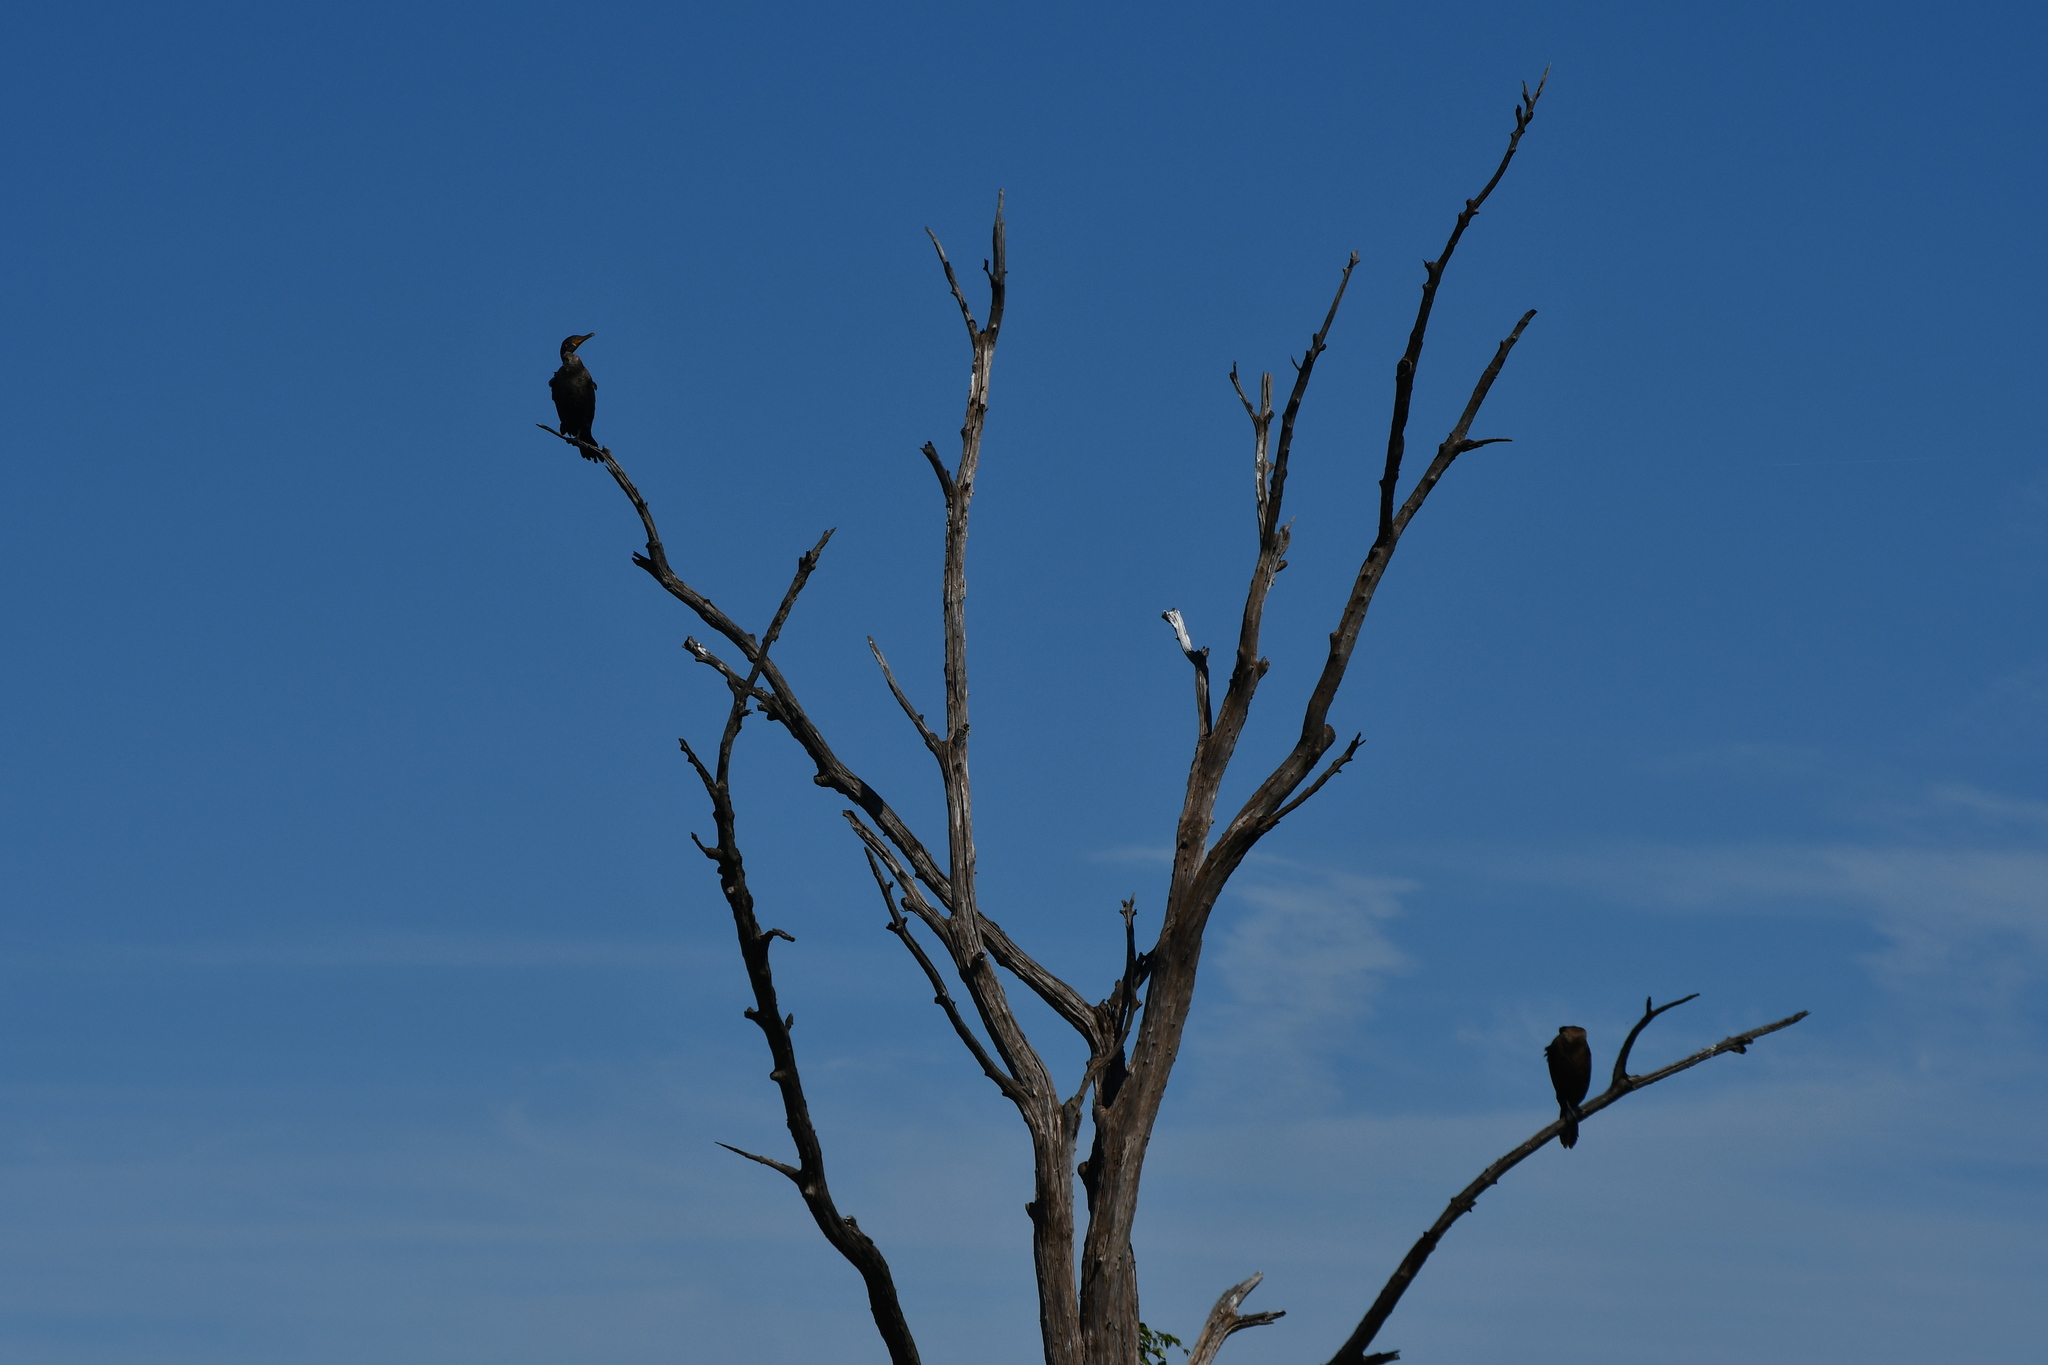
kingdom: Animalia
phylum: Chordata
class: Aves
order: Suliformes
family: Phalacrocoracidae
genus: Phalacrocorax
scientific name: Phalacrocorax auritus
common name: Double-crested cormorant
